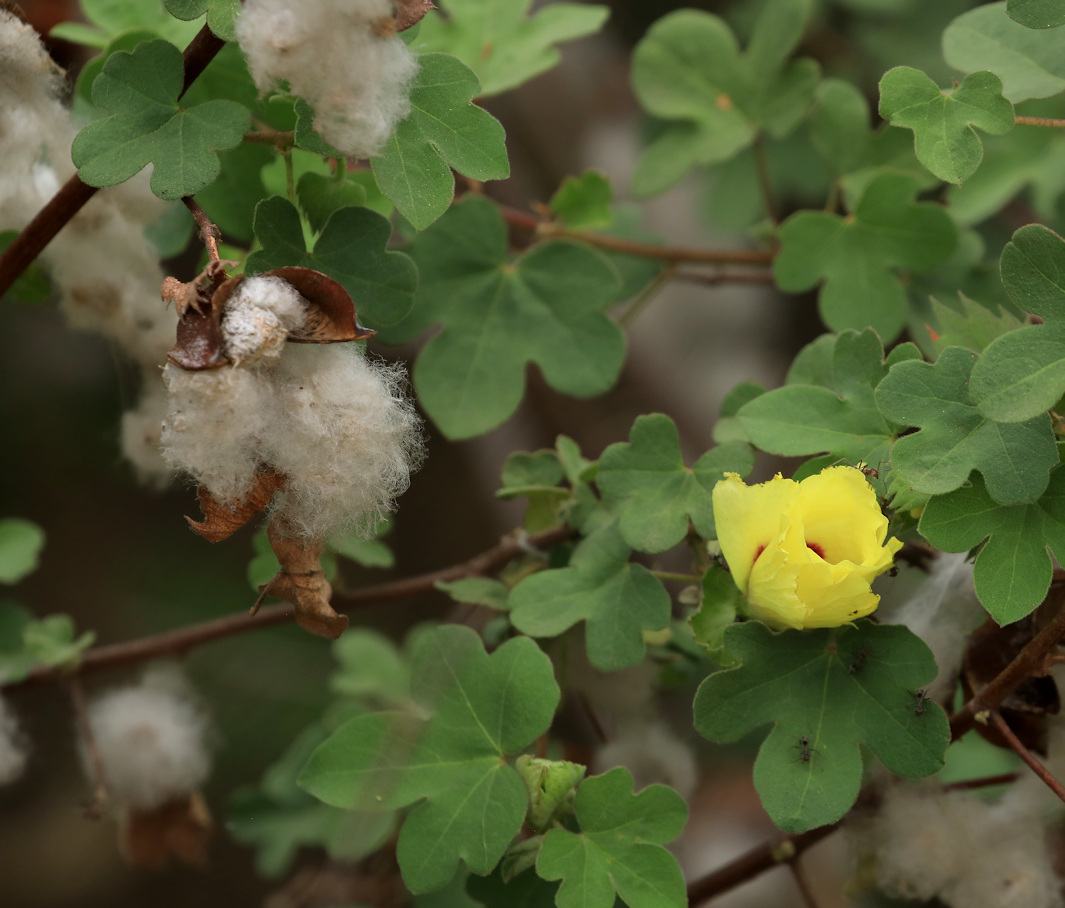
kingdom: Plantae
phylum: Tracheophyta
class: Magnoliopsida
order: Malvales
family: Malvaceae
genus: Gossypium
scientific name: Gossypium herbaceum
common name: Levant cotton
